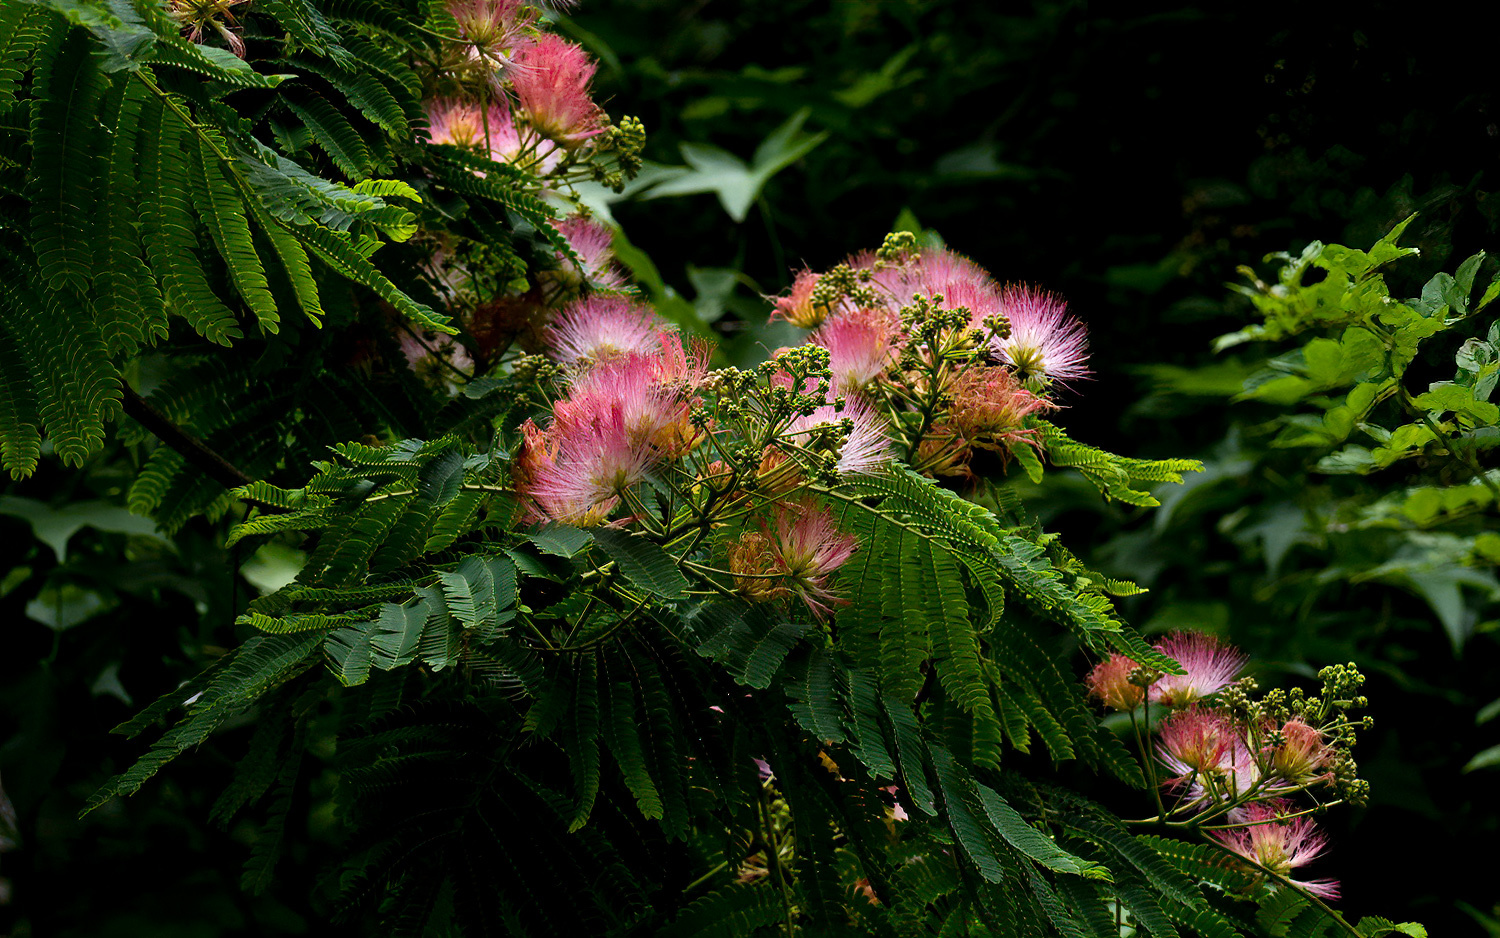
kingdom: Plantae
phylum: Tracheophyta
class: Magnoliopsida
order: Fabales
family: Fabaceae
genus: Albizia
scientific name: Albizia julibrissin
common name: Silktree
